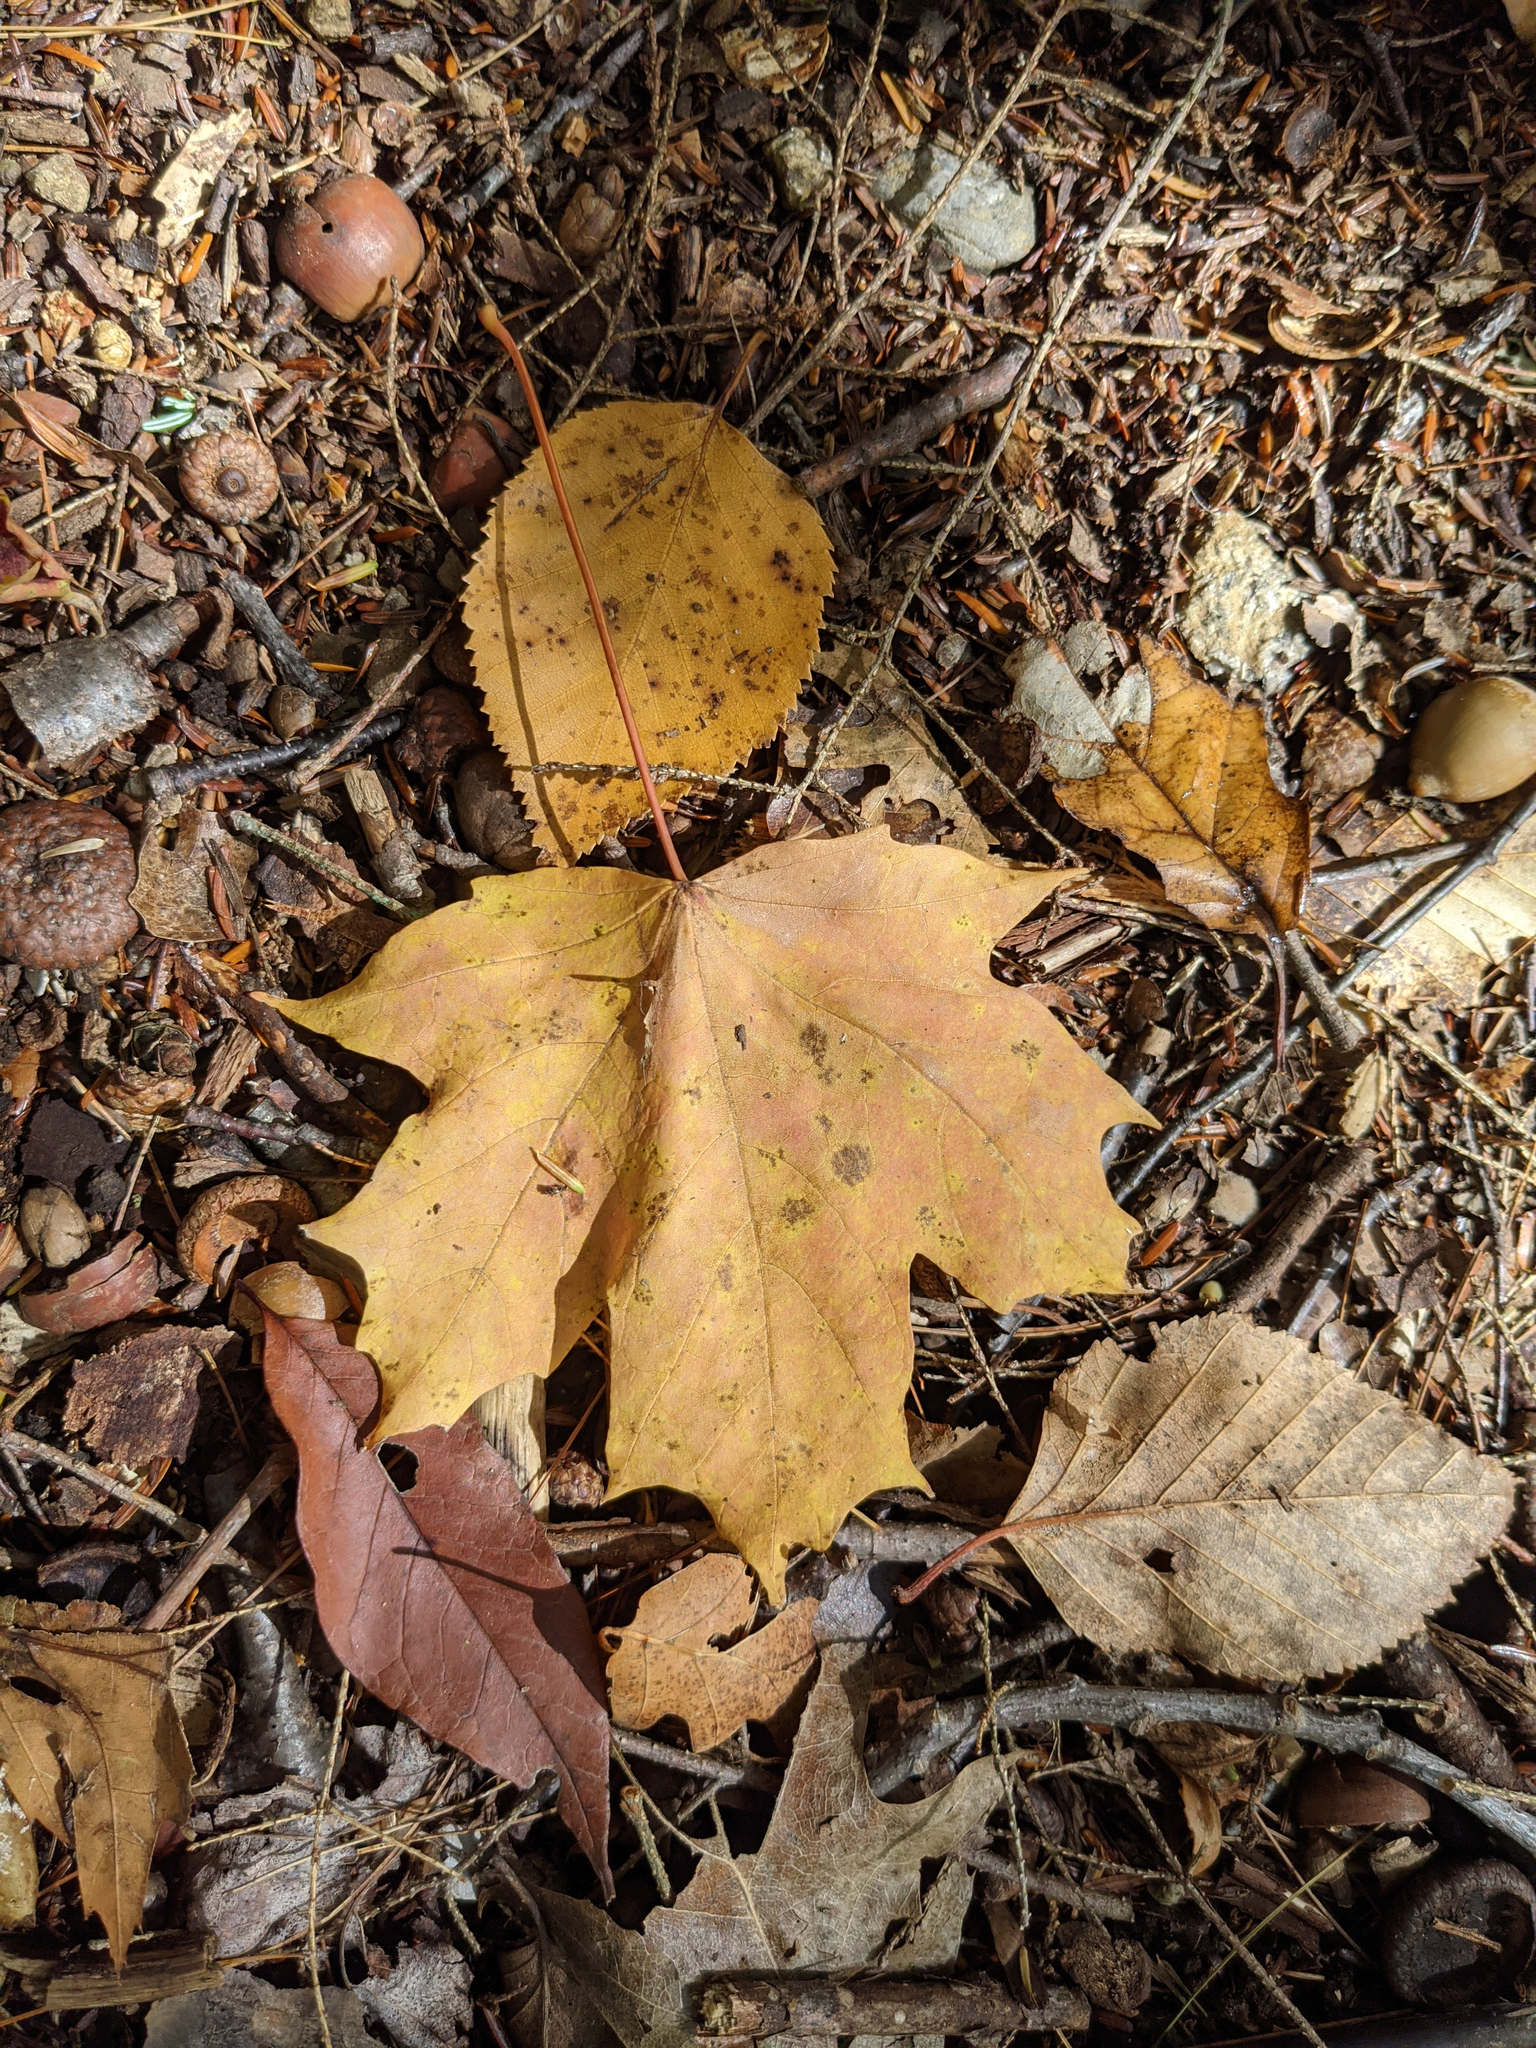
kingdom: Plantae
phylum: Tracheophyta
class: Magnoliopsida
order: Sapindales
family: Sapindaceae
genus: Acer
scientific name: Acer saccharum
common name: Sugar maple
